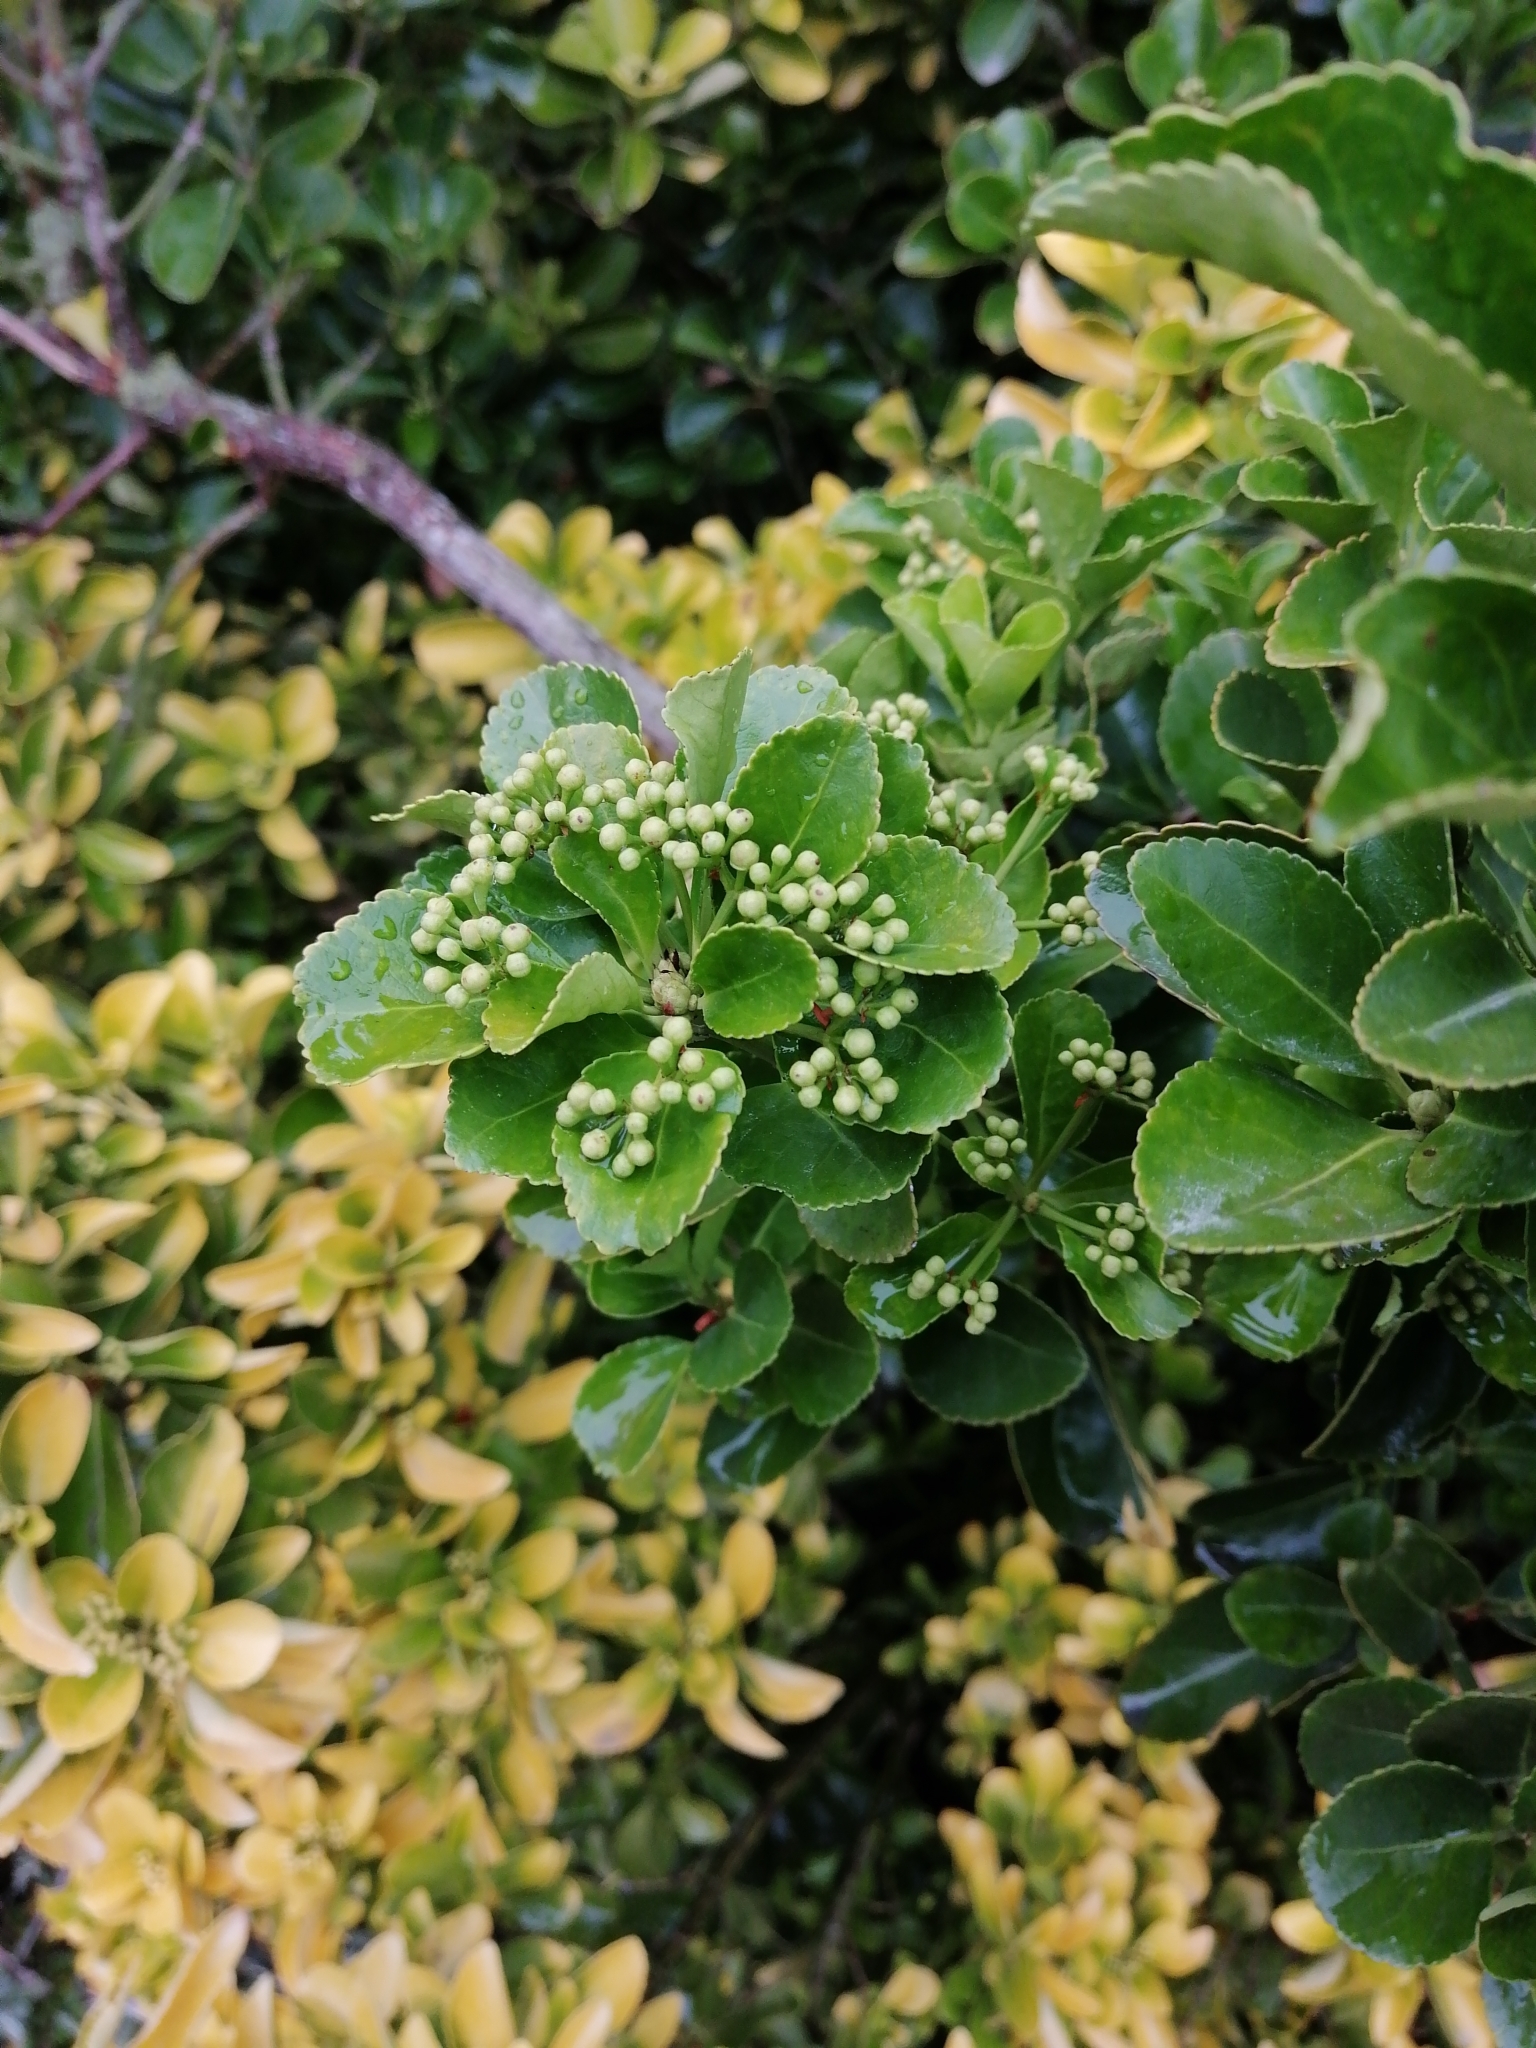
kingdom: Plantae
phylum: Tracheophyta
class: Magnoliopsida
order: Celastrales
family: Celastraceae
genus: Euonymus
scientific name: Euonymus japonicus
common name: Japanese spindletree
